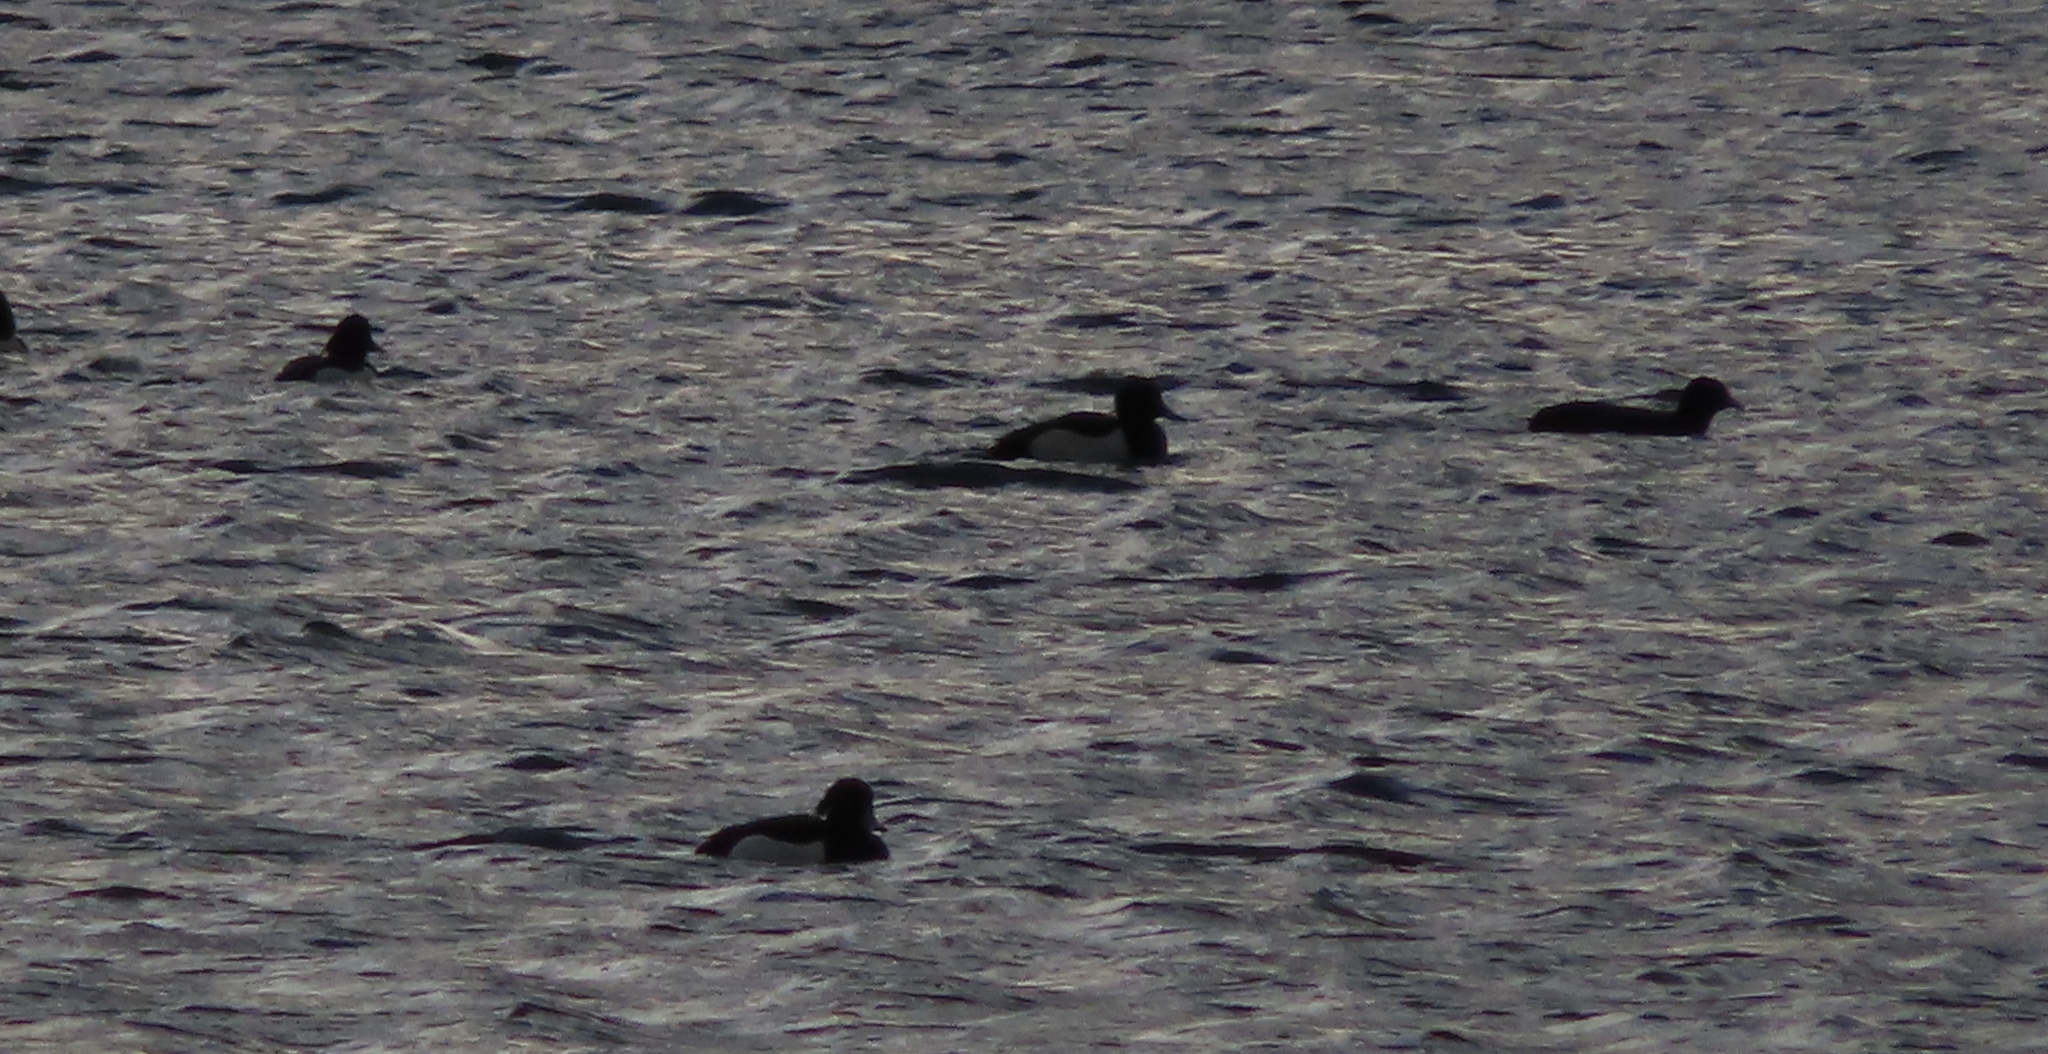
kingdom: Animalia
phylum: Chordata
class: Aves
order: Anseriformes
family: Anatidae
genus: Aythya
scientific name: Aythya fuligula
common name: Tufted duck
